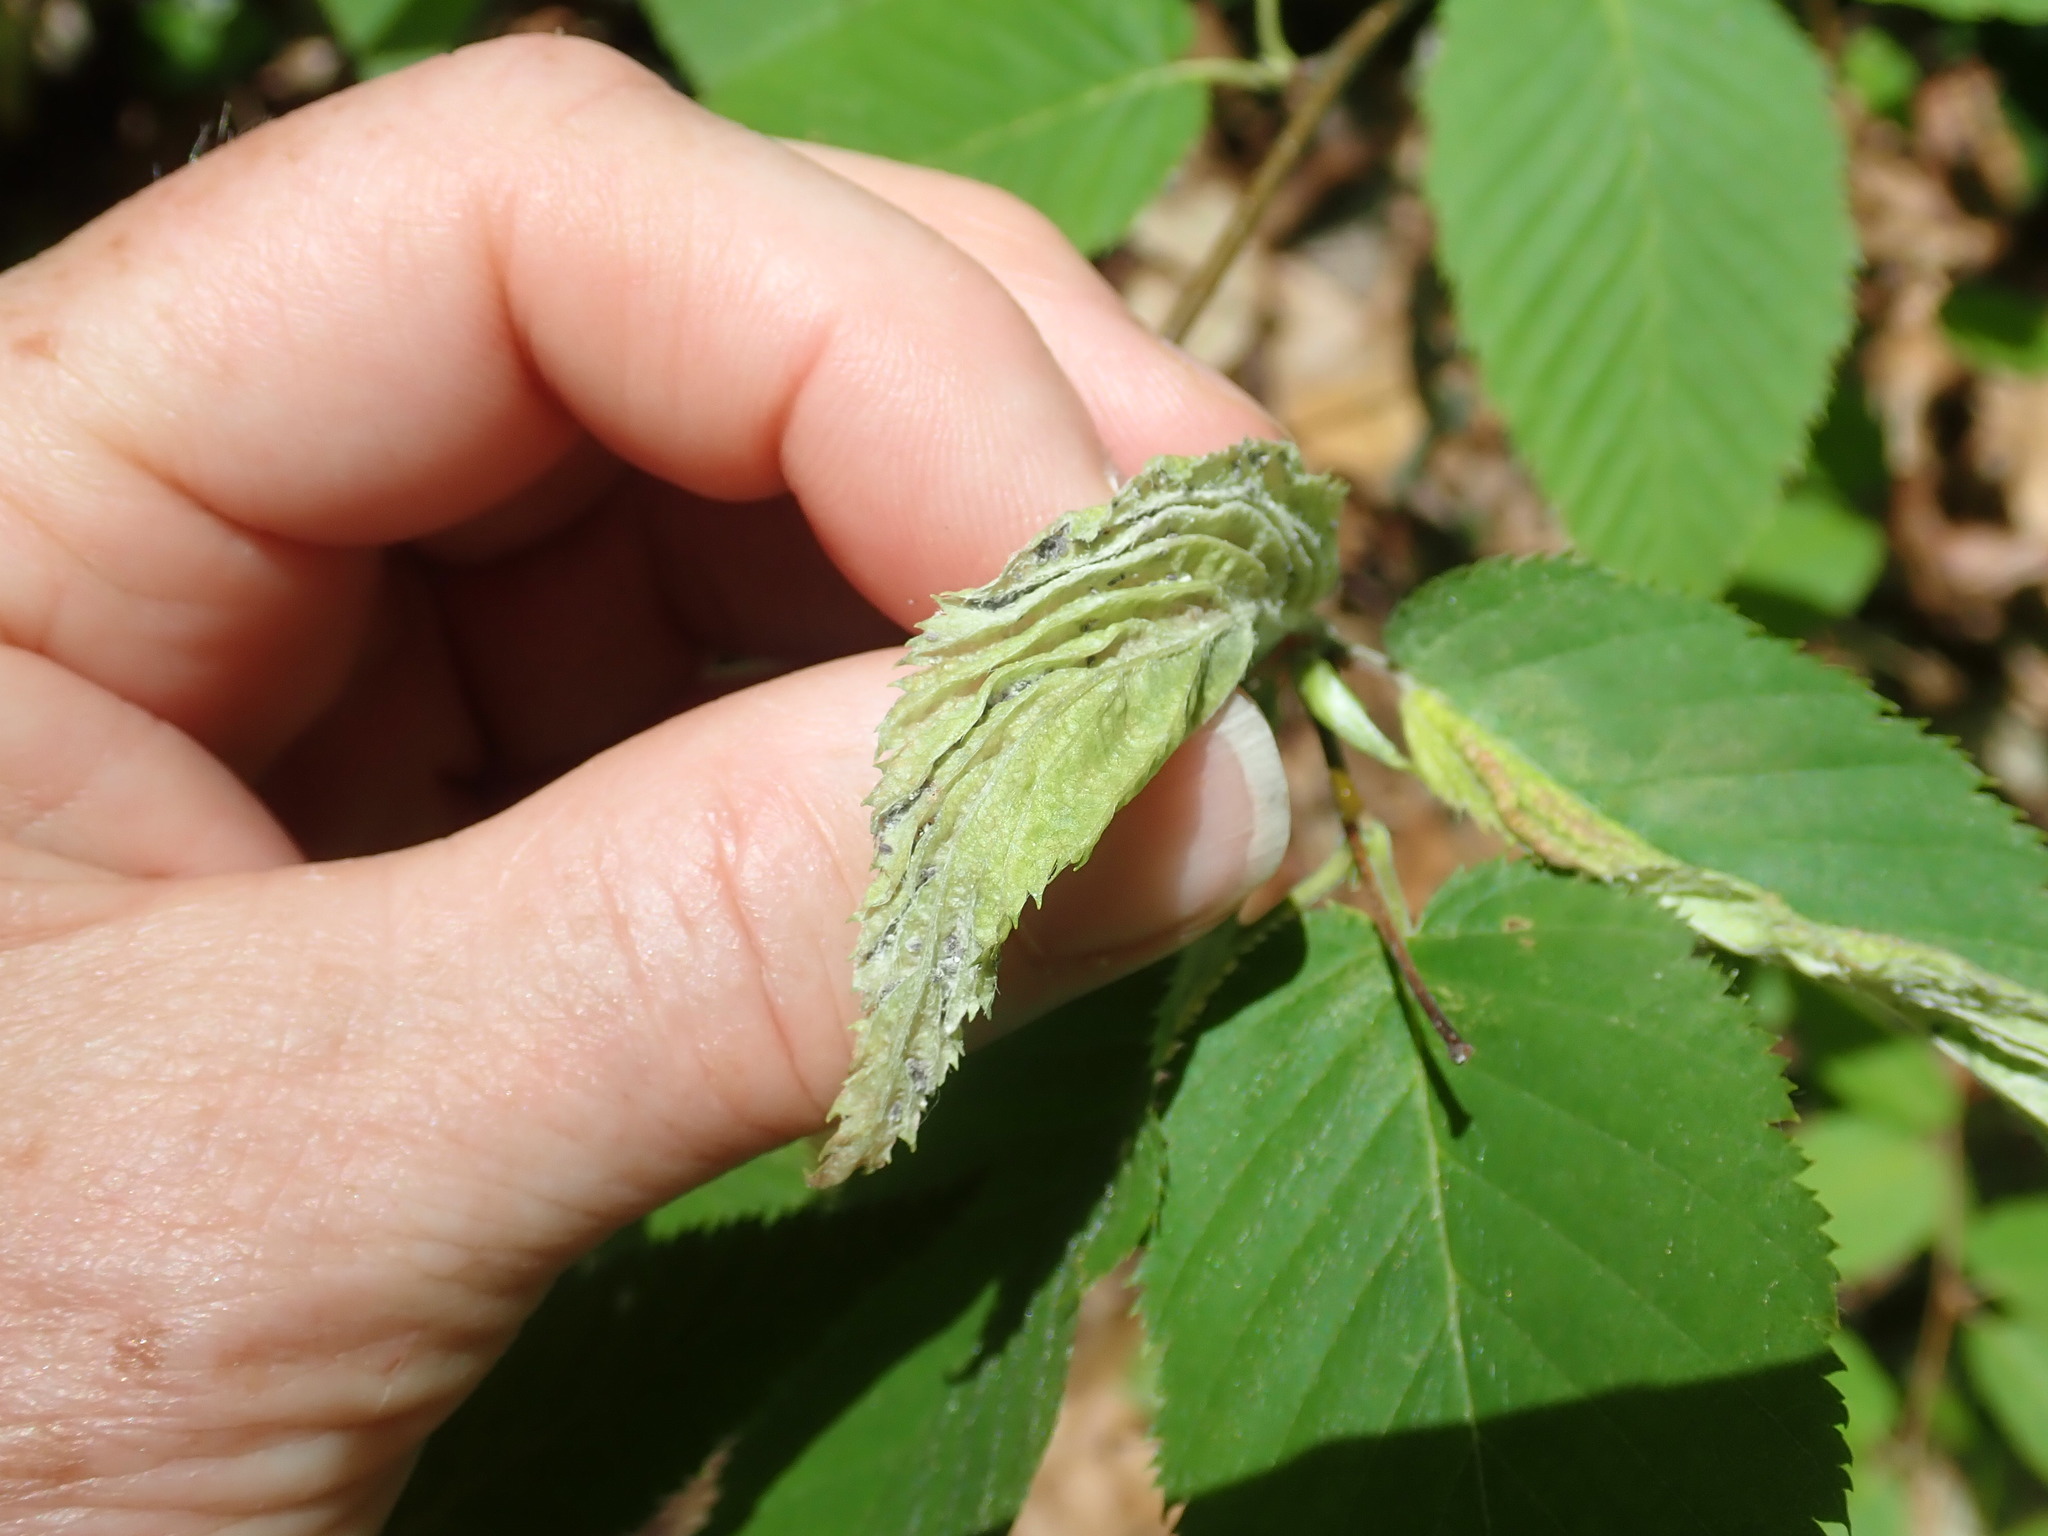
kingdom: Animalia
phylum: Arthropoda
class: Insecta
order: Hemiptera
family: Aphididae
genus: Hamamelistes
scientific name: Hamamelistes spinosus
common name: Witch hazel gall aphid
